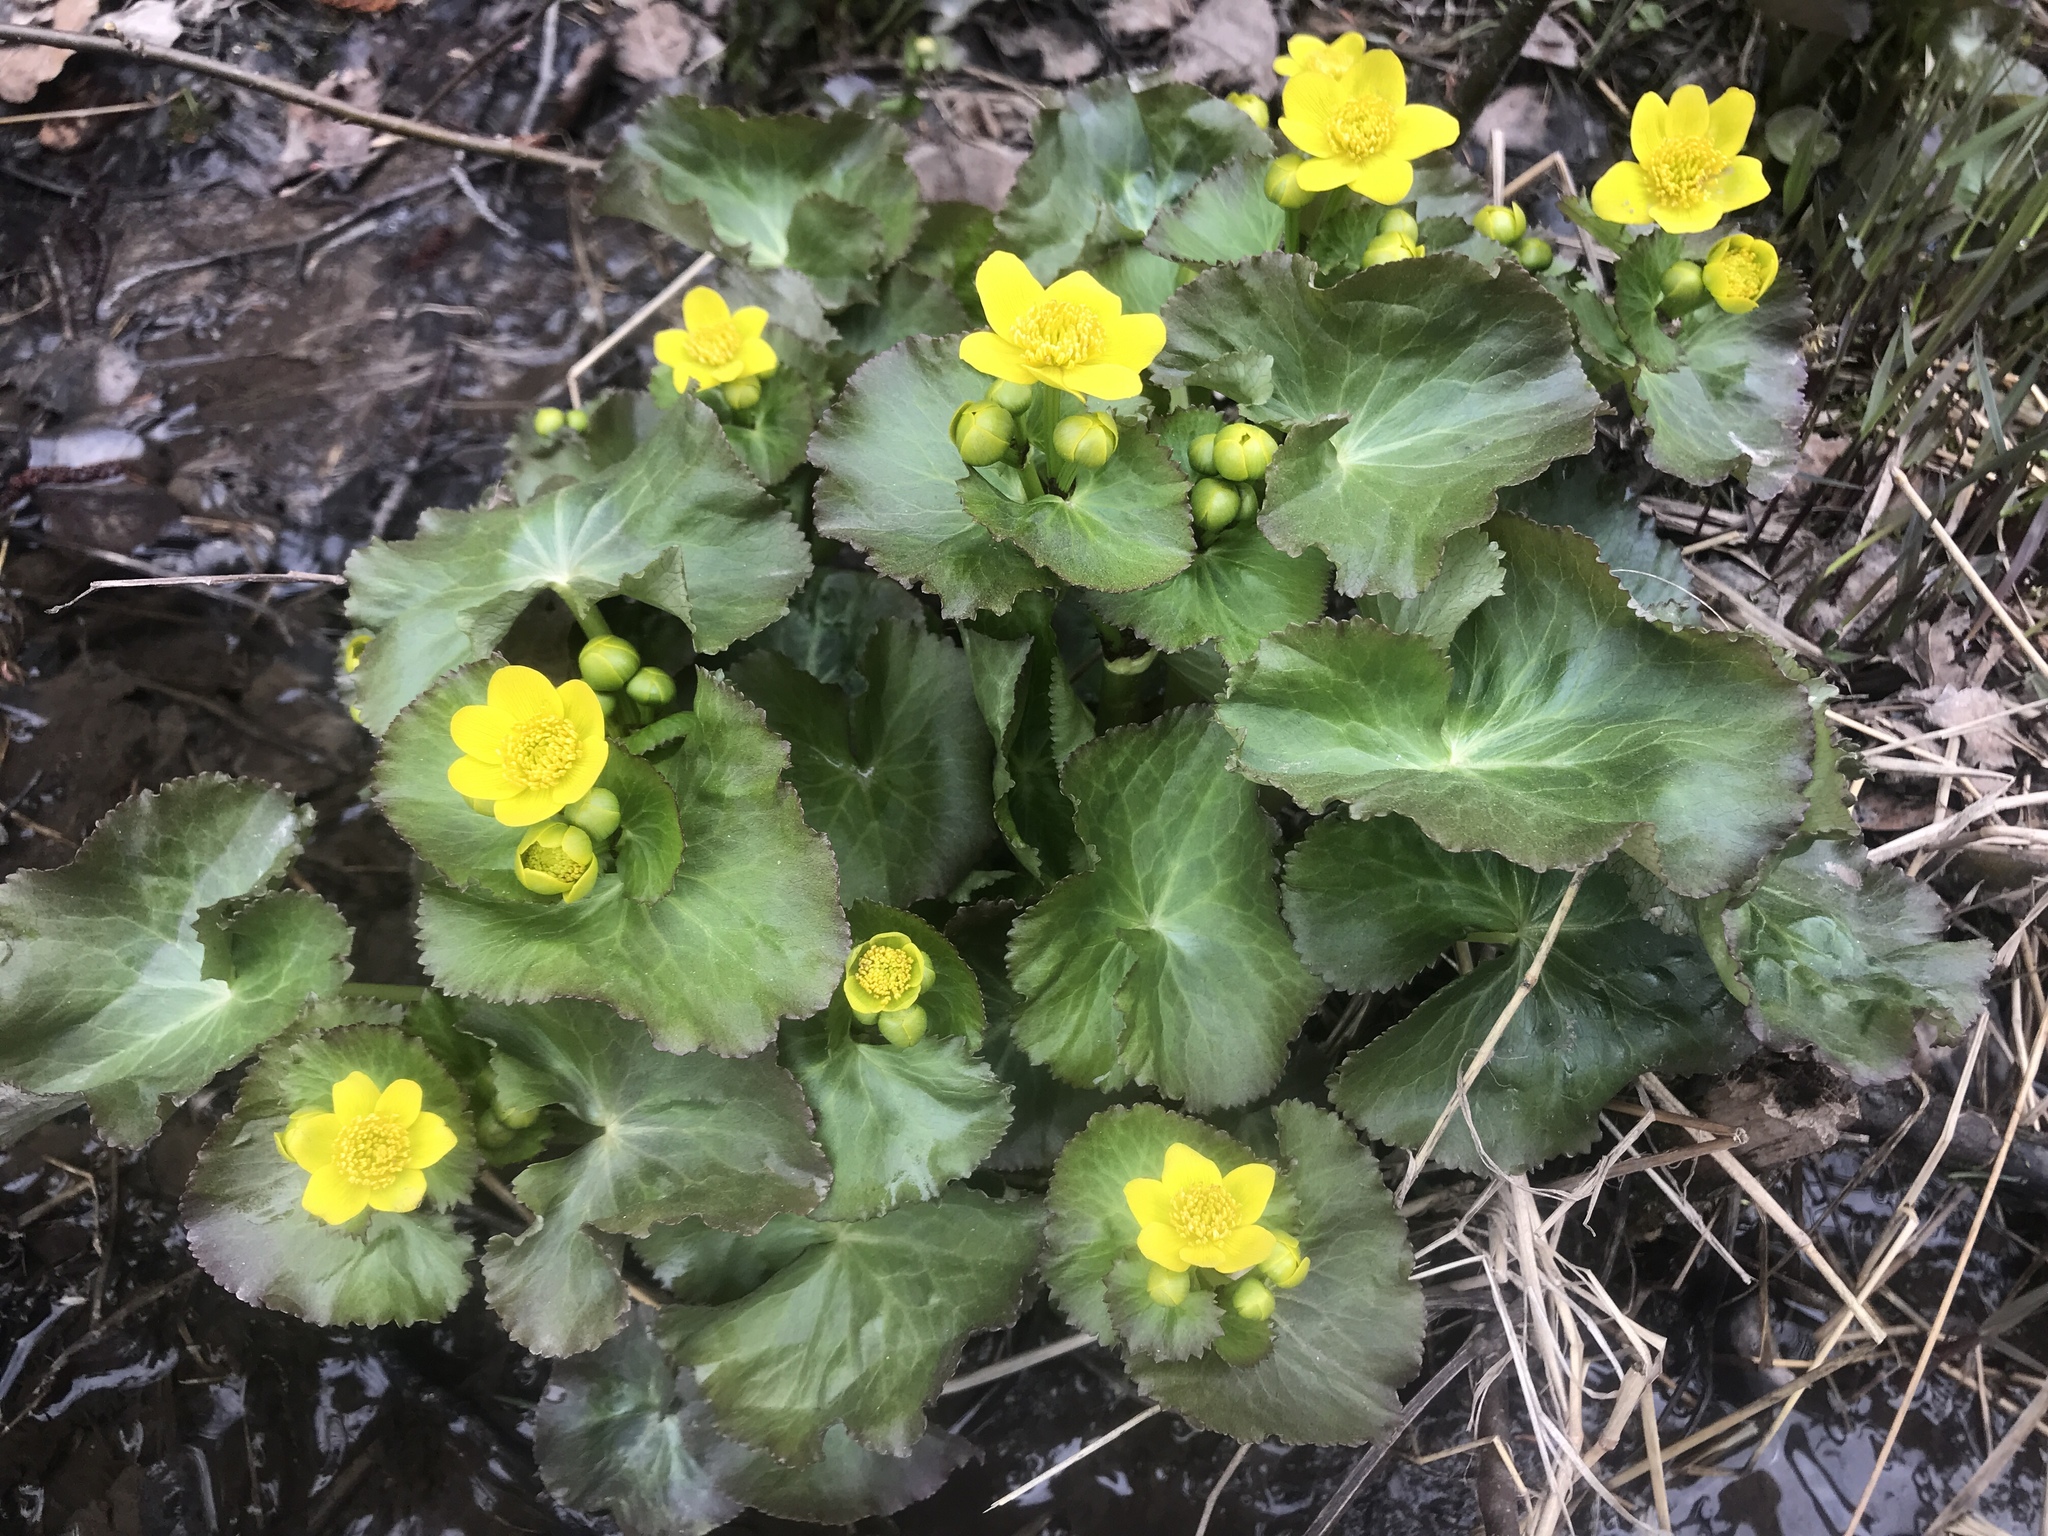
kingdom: Plantae
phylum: Tracheophyta
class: Magnoliopsida
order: Ranunculales
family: Ranunculaceae
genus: Caltha
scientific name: Caltha palustris
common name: Marsh marigold
